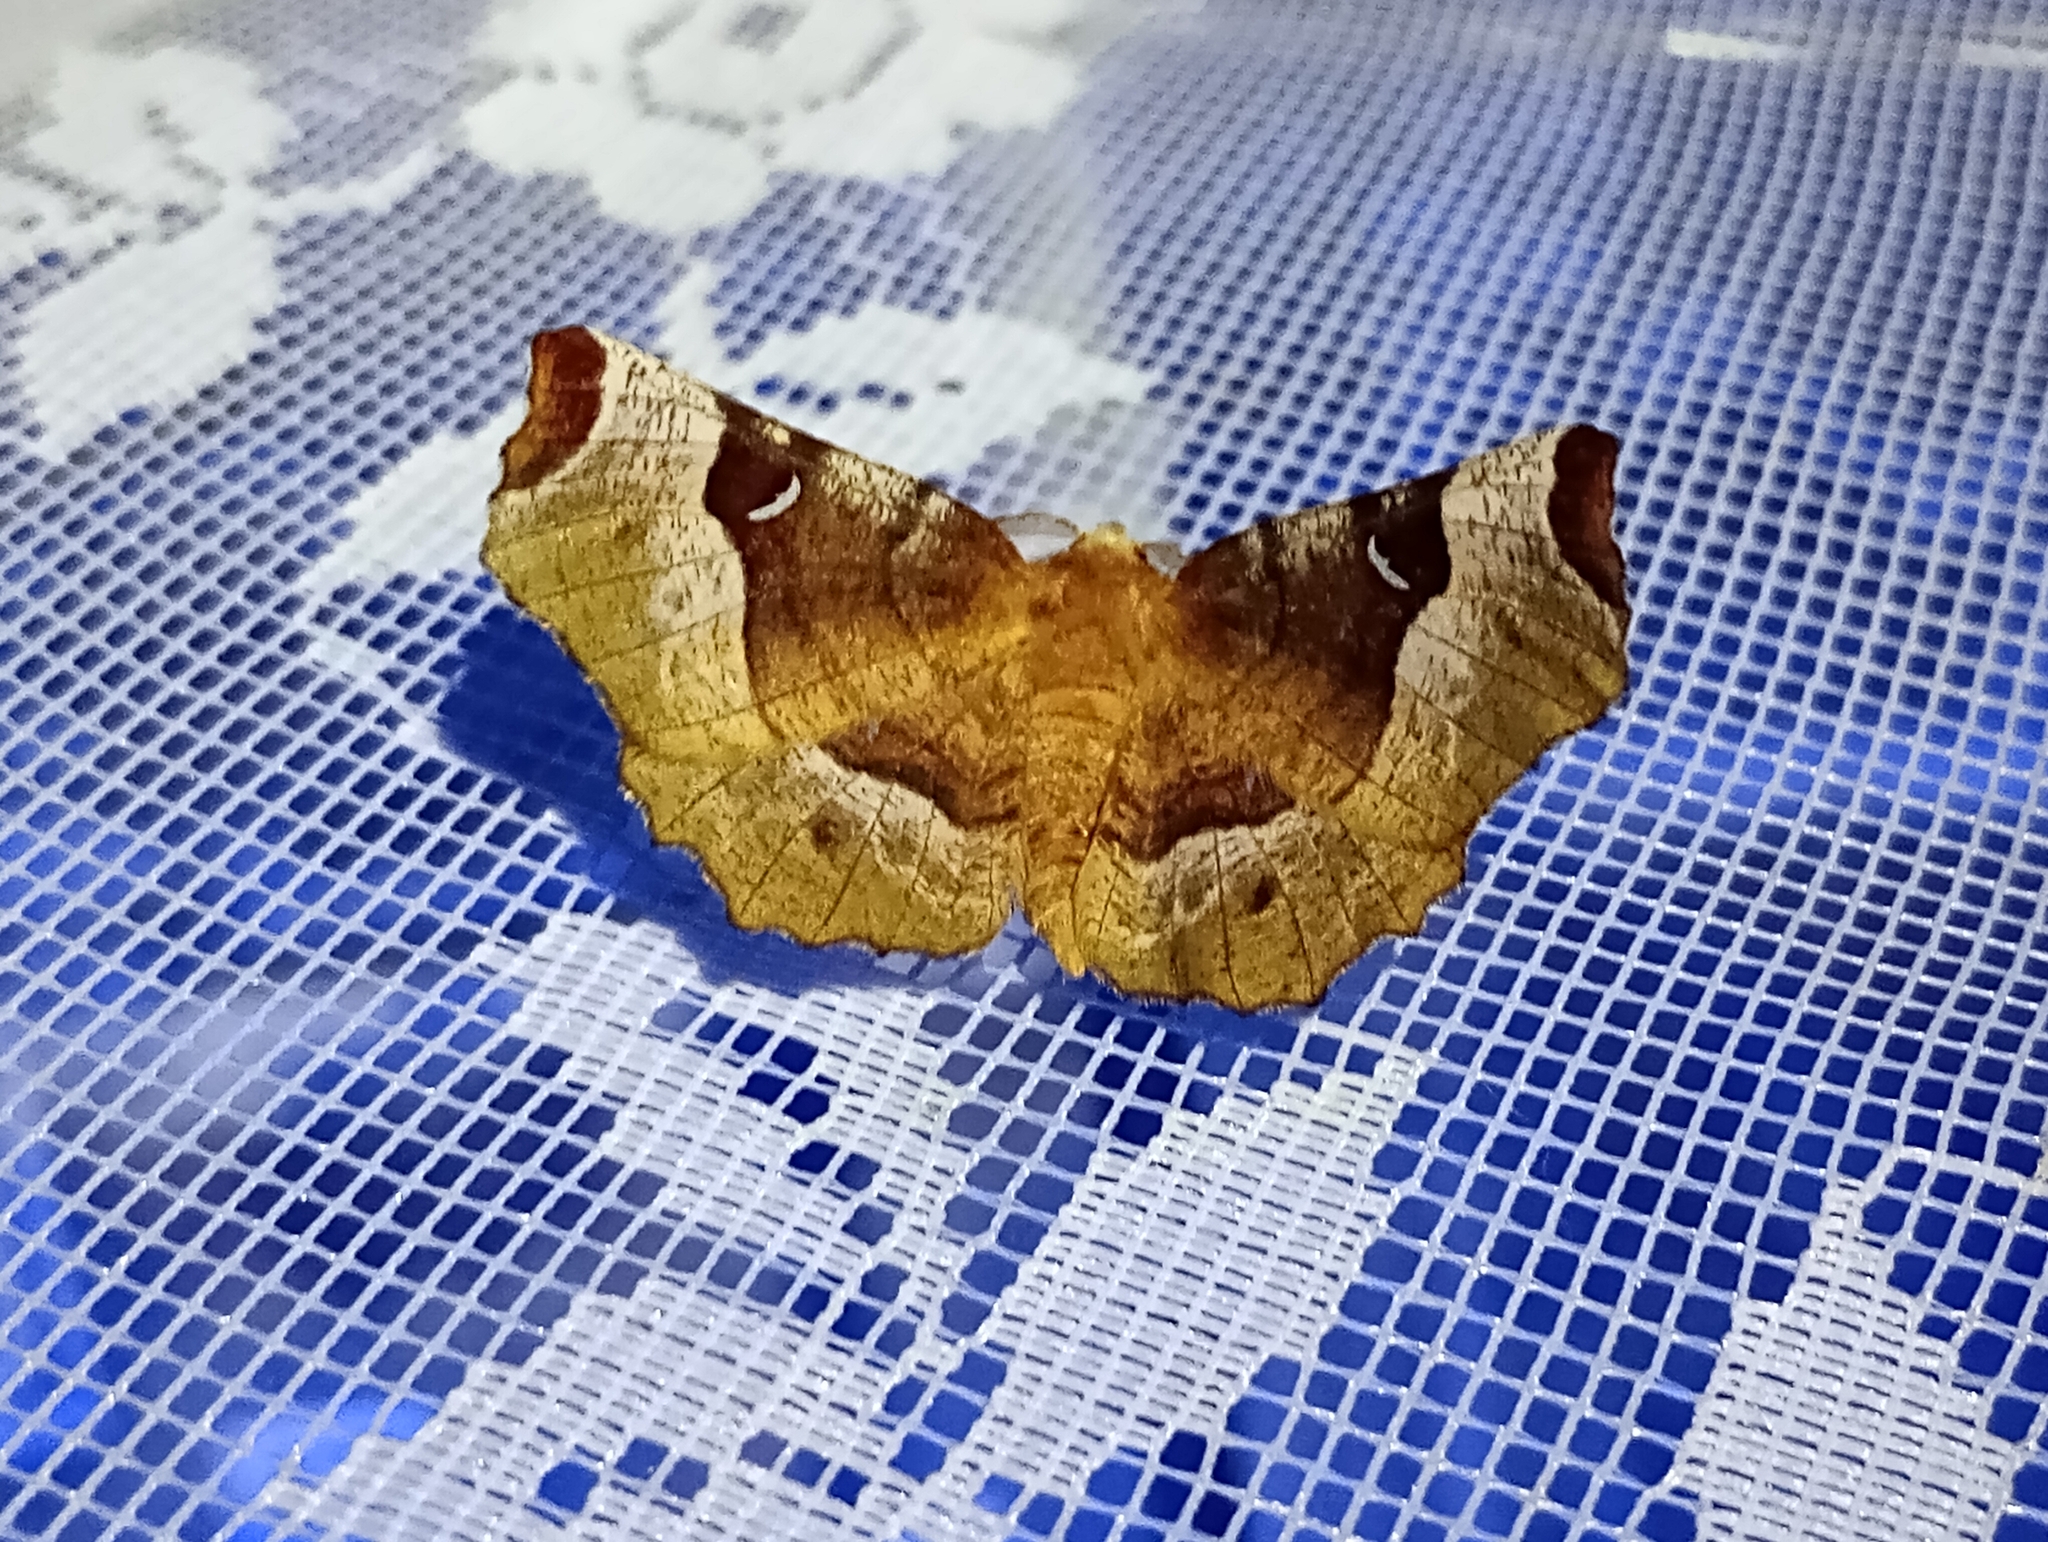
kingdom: Animalia
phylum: Arthropoda
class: Insecta
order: Lepidoptera
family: Geometridae
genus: Selenia
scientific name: Selenia tetralunaria
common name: Purple thorn
